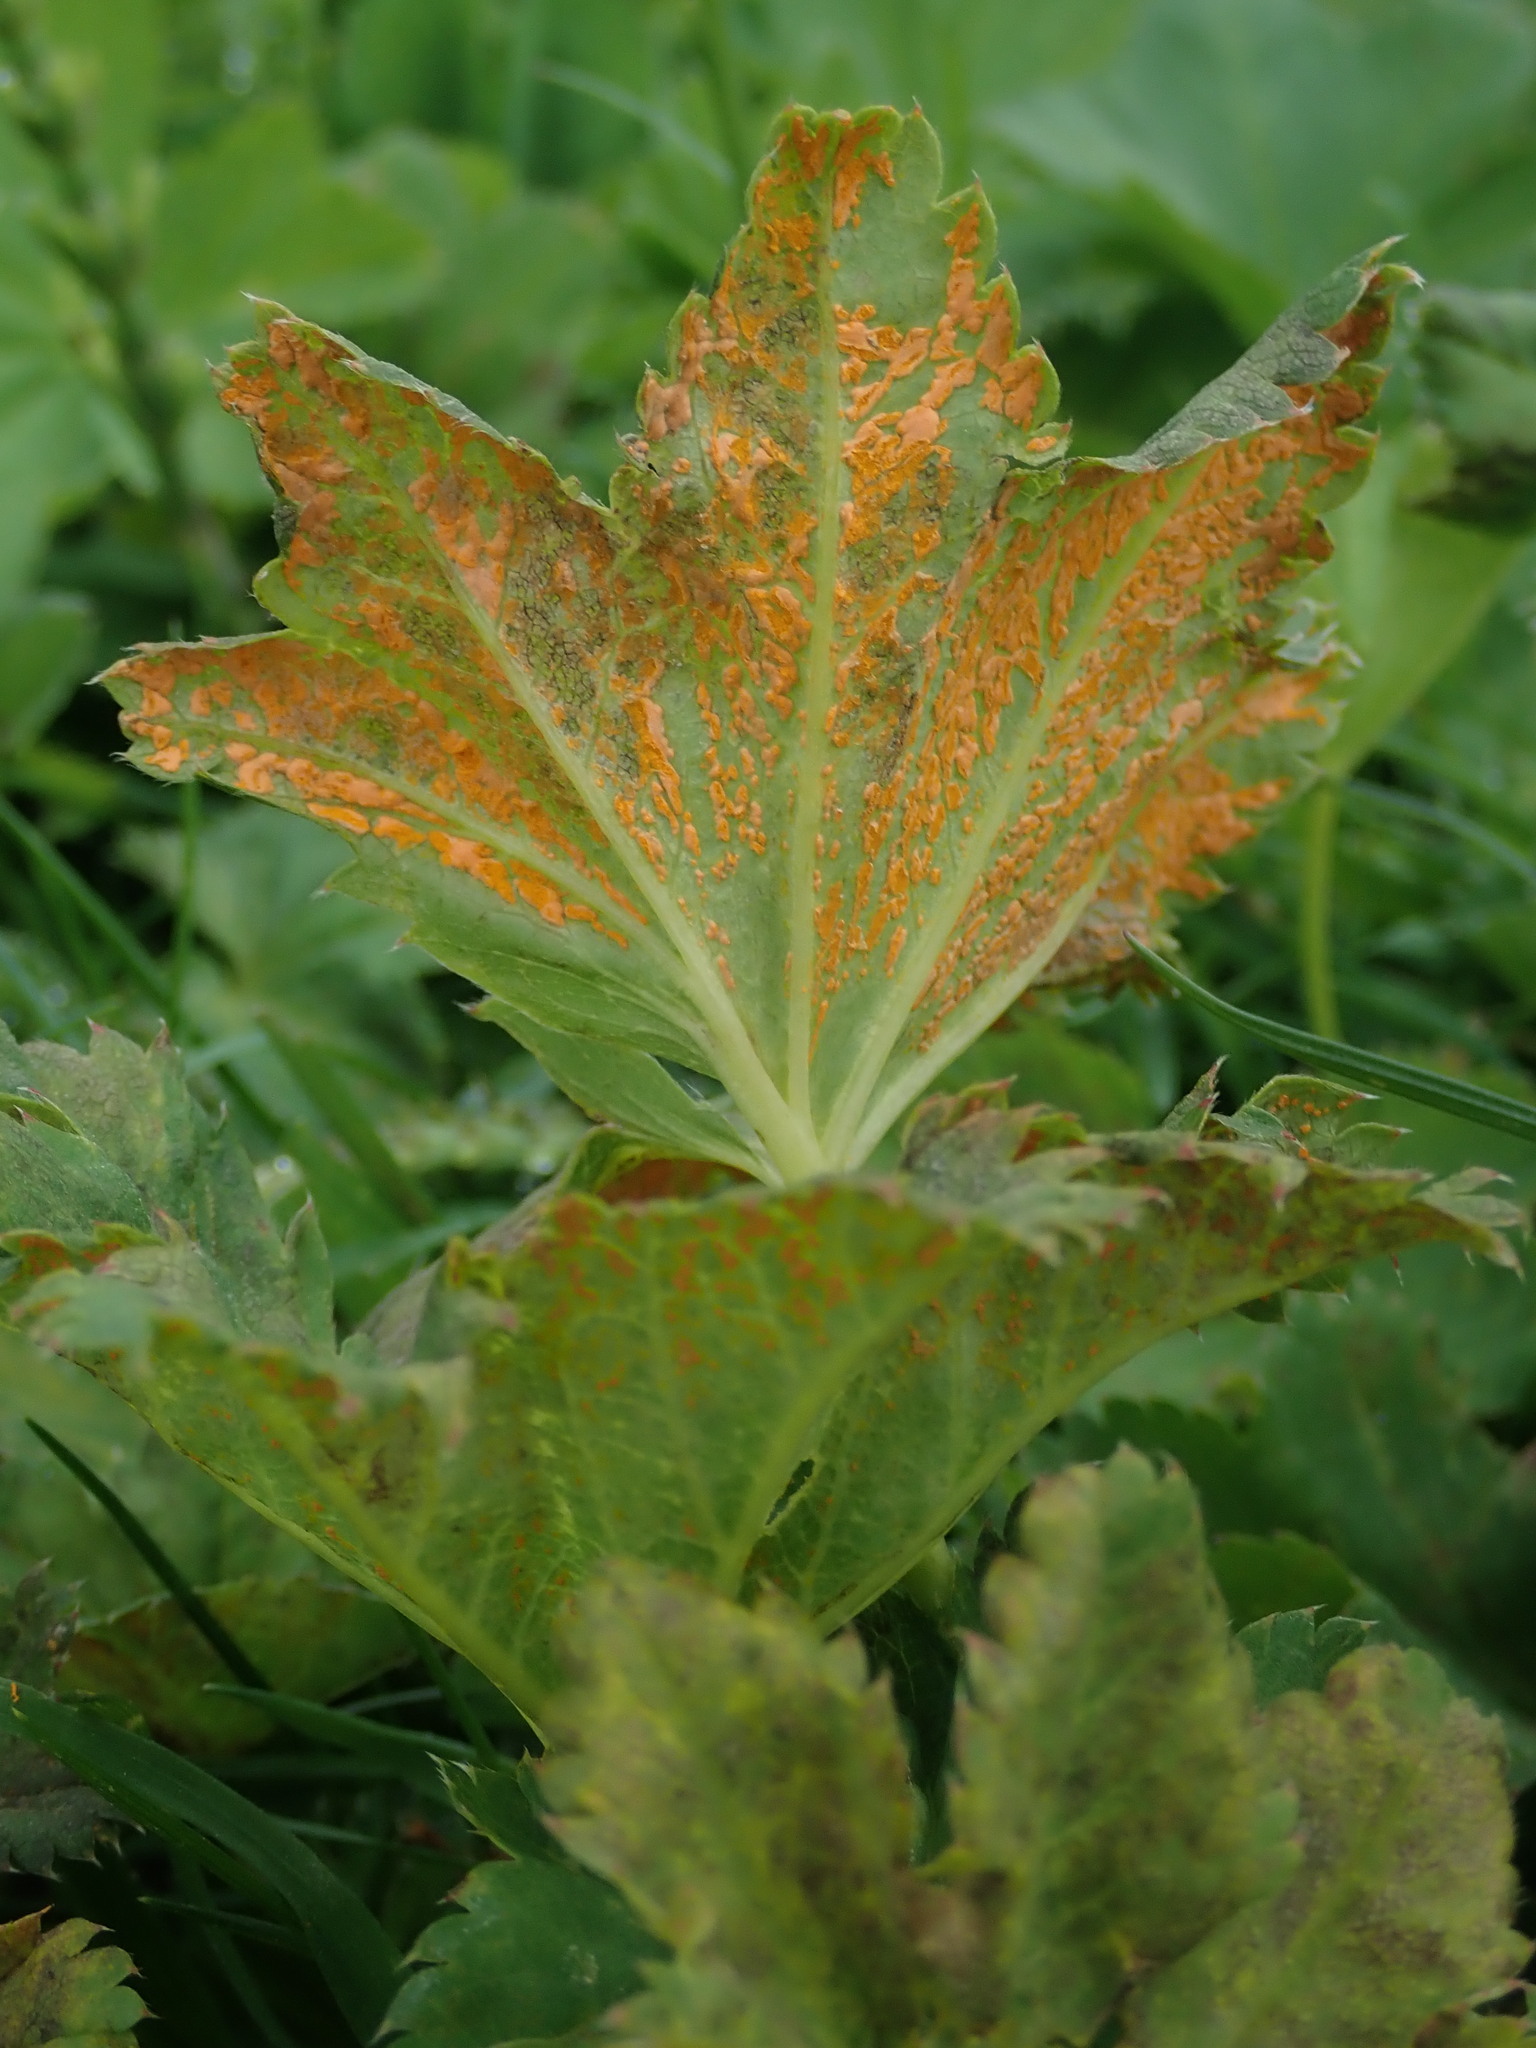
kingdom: Fungi
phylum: Basidiomycota
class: Pucciniomycetes
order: Pucciniales
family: Phragmidiaceae
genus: Trachyspora
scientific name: Trachyspora alchemillae
